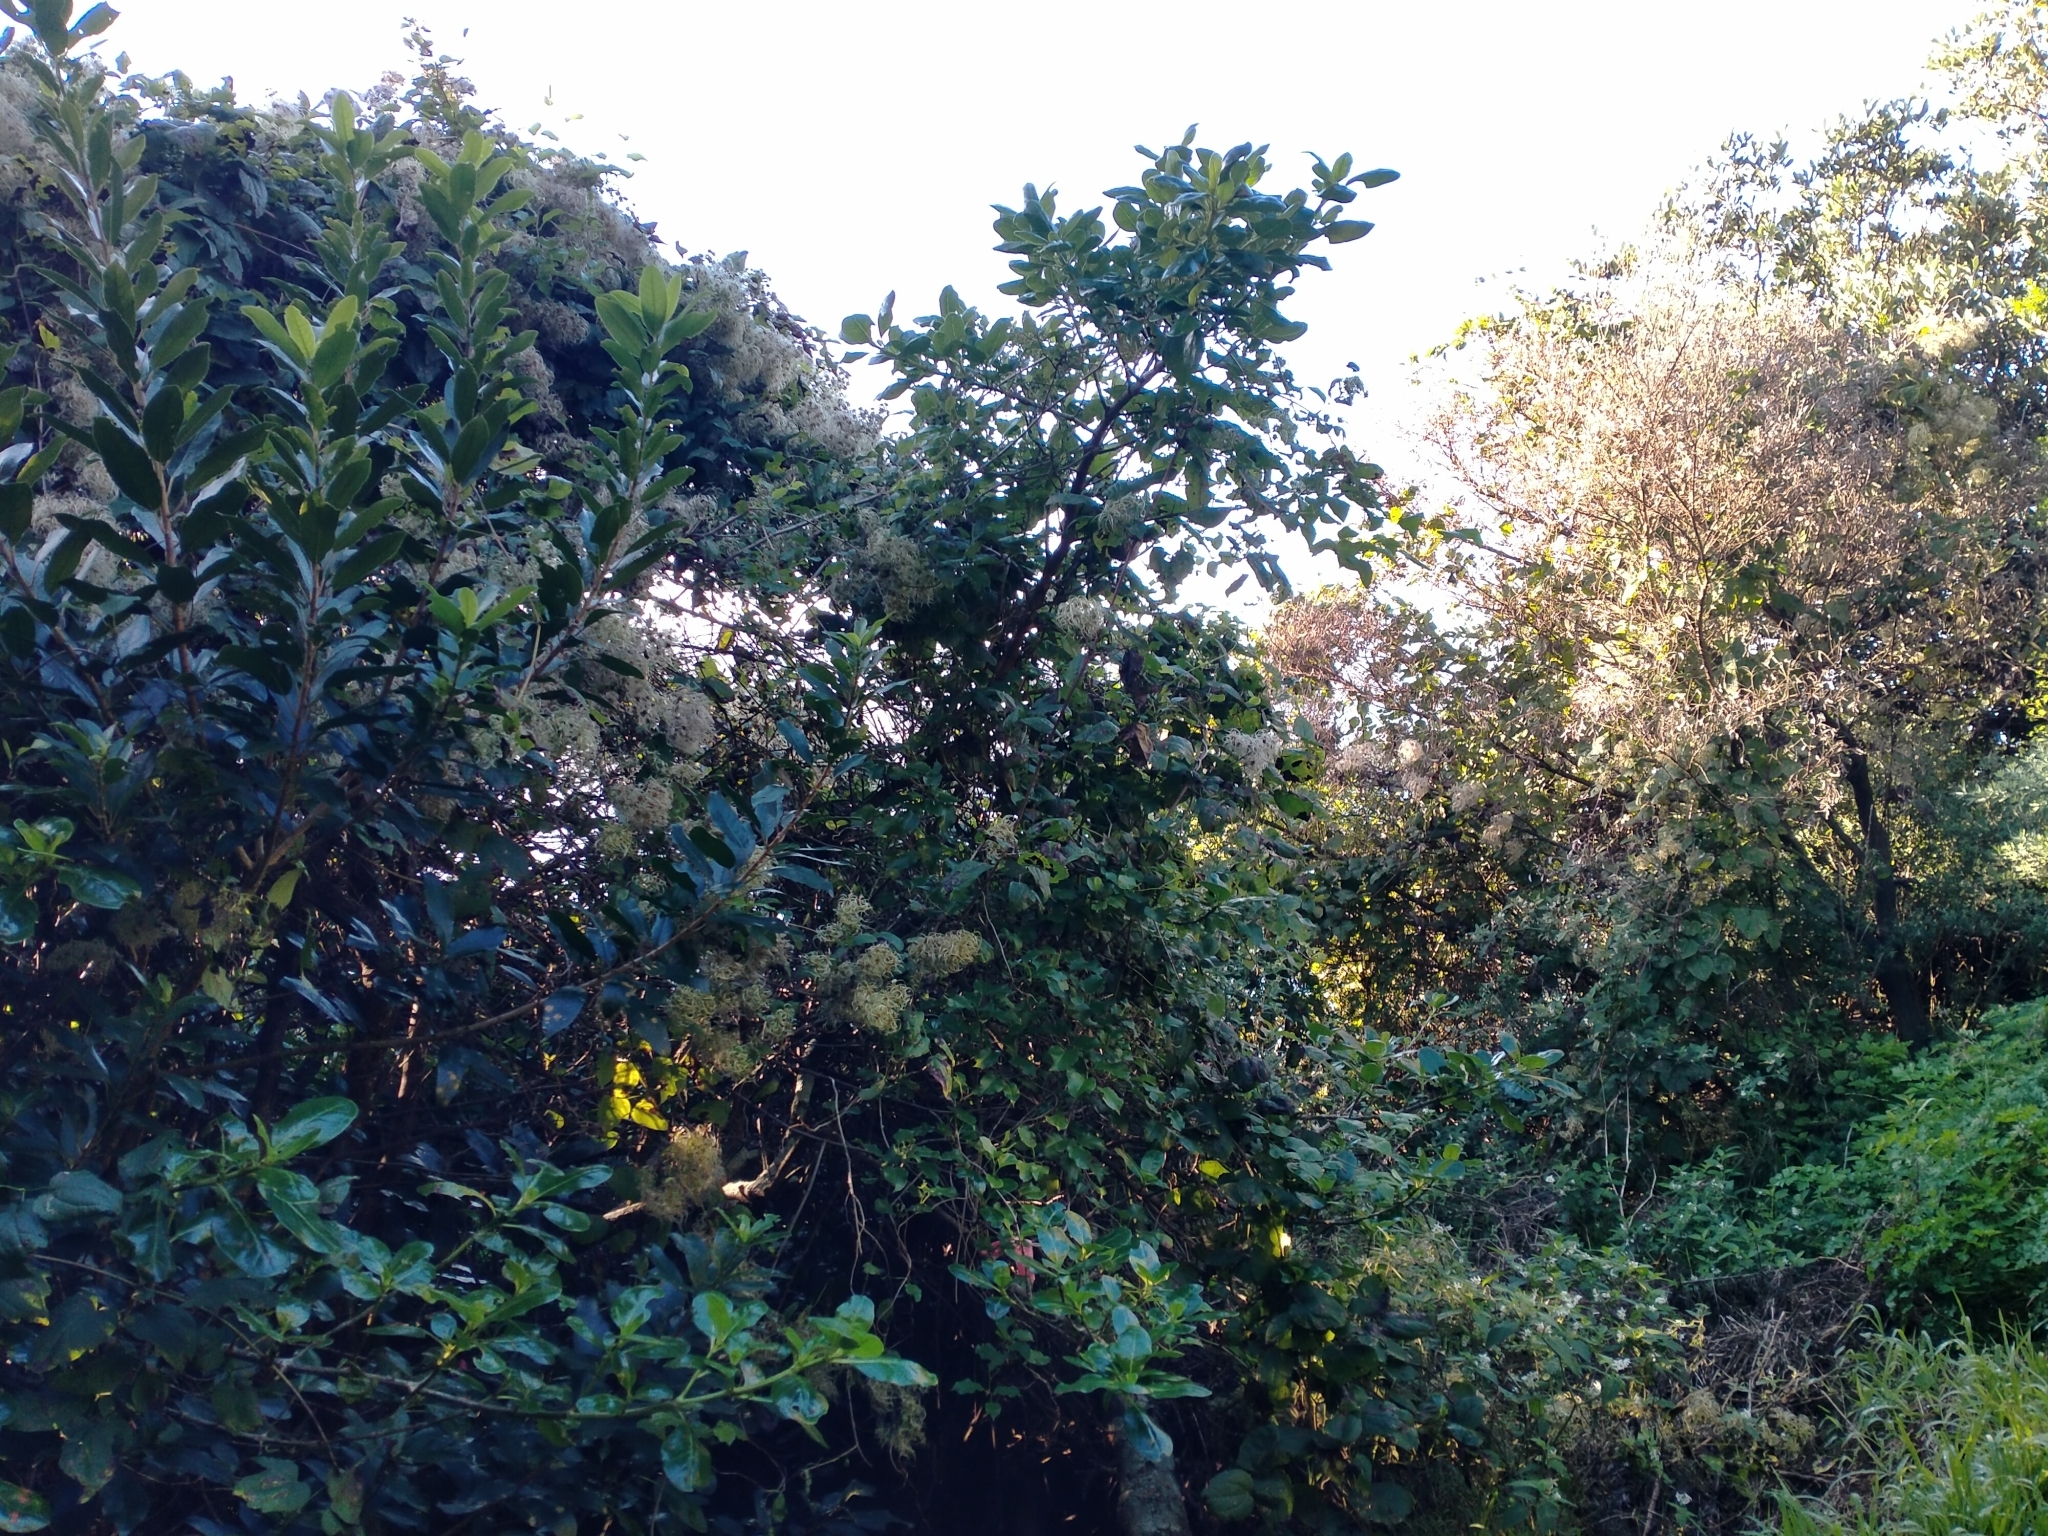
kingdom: Plantae
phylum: Tracheophyta
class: Magnoliopsida
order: Ranunculales
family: Ranunculaceae
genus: Clematis
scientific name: Clematis vitalba
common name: Evergreen clematis
